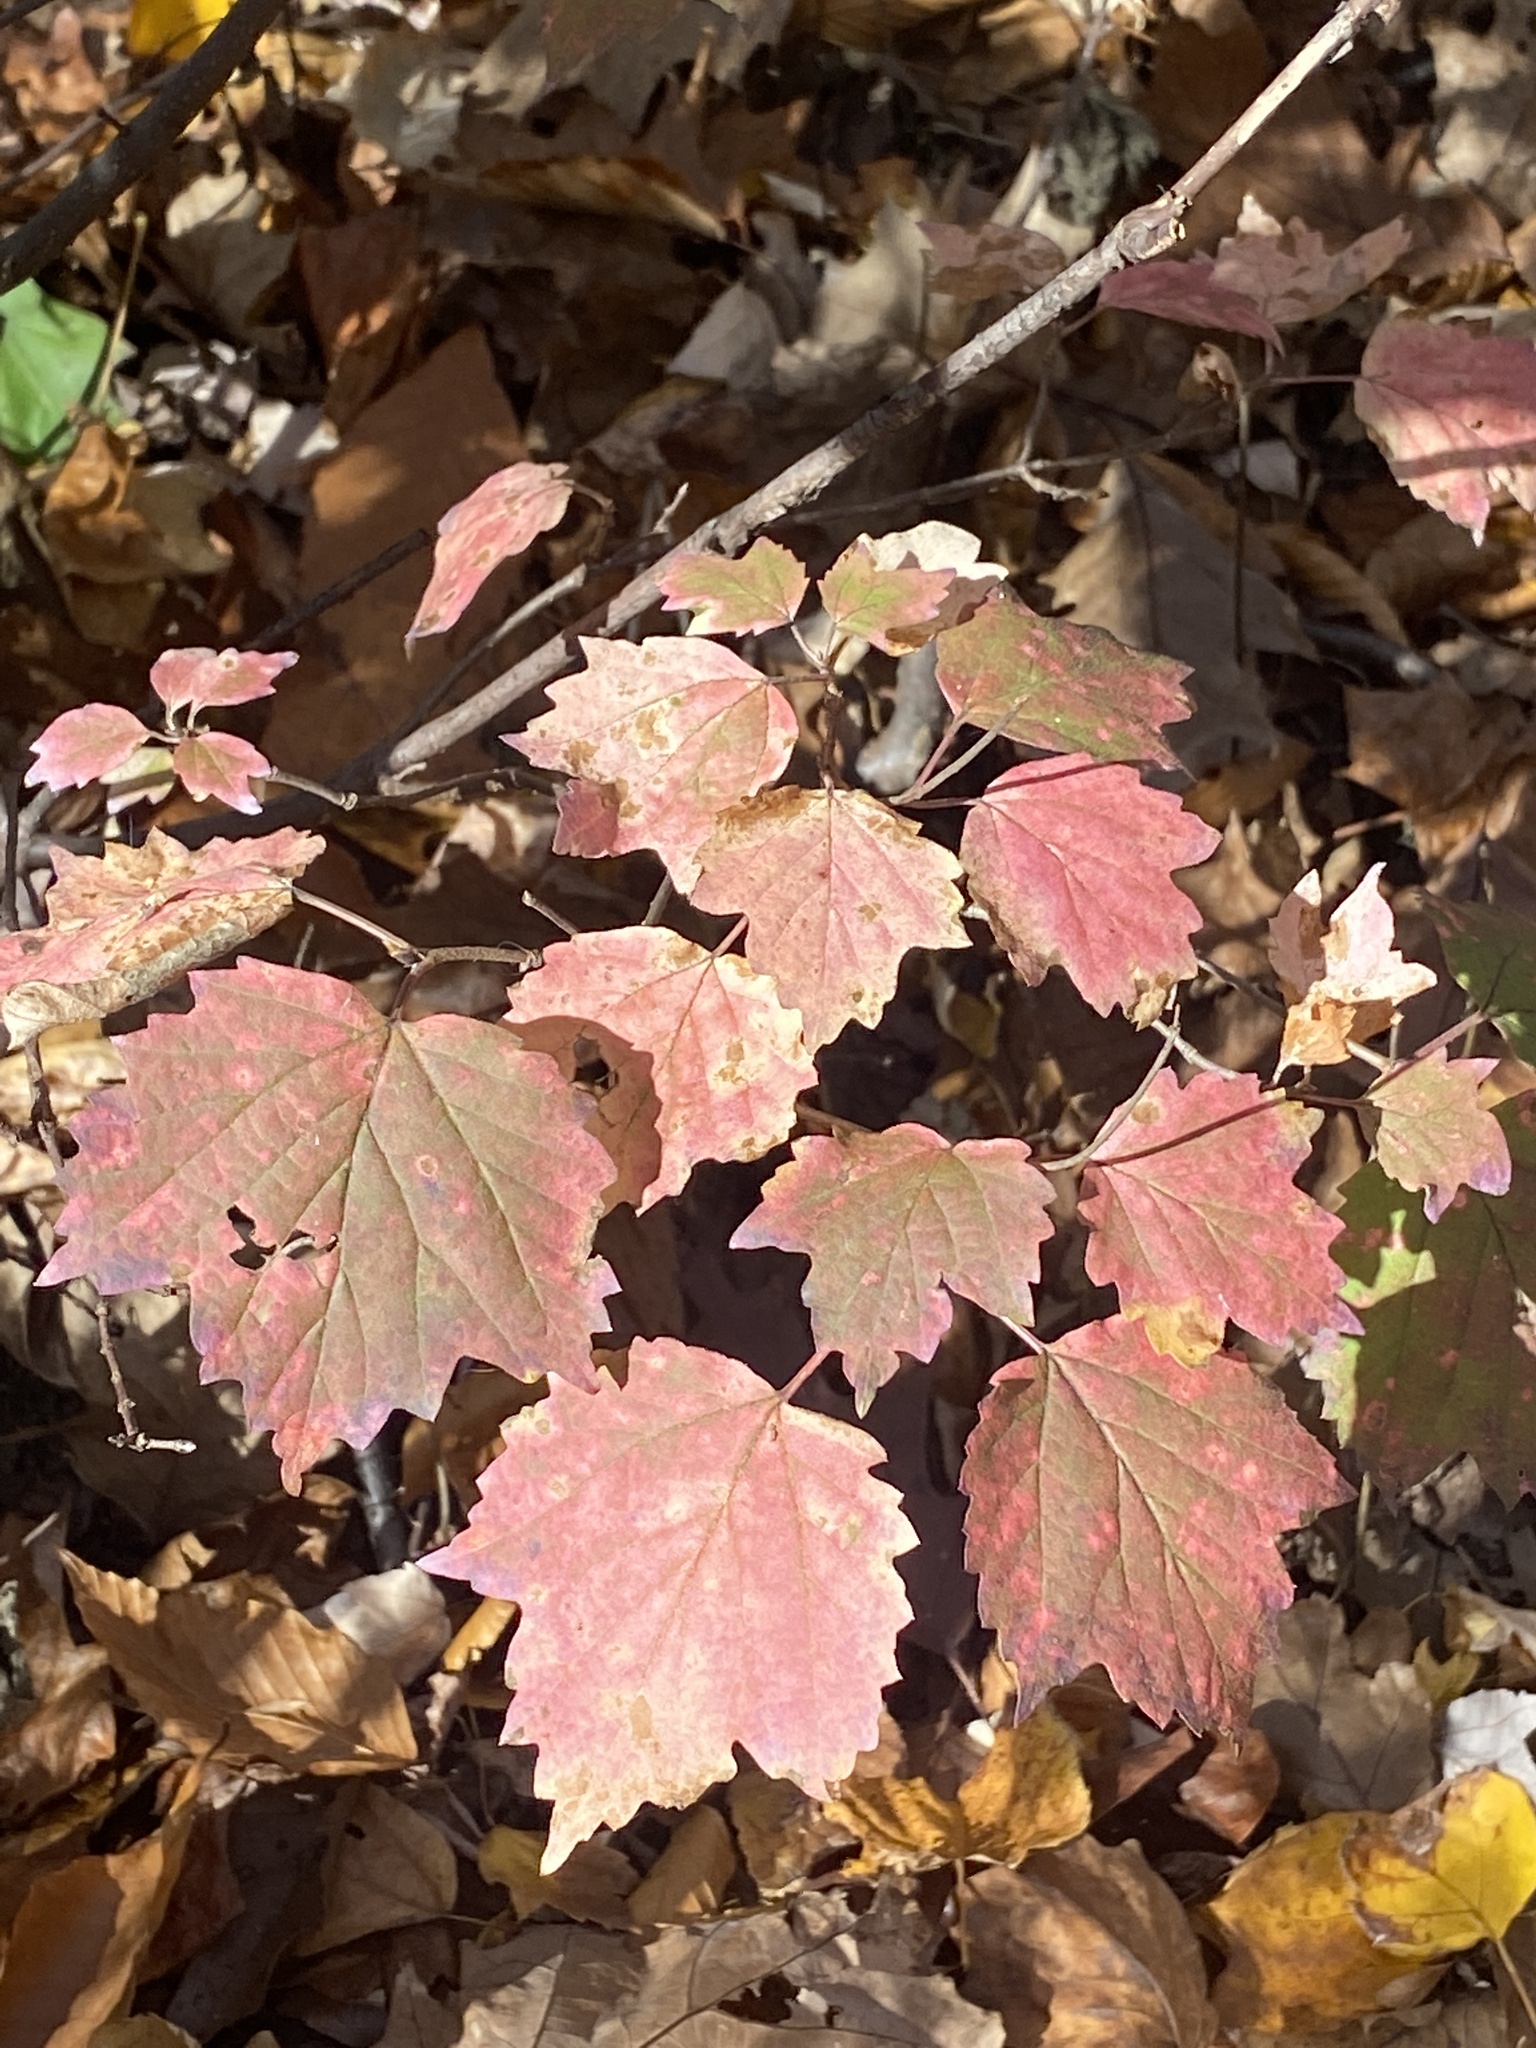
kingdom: Plantae
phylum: Tracheophyta
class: Magnoliopsida
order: Dipsacales
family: Viburnaceae
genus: Viburnum
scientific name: Viburnum acerifolium
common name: Dockmackie
